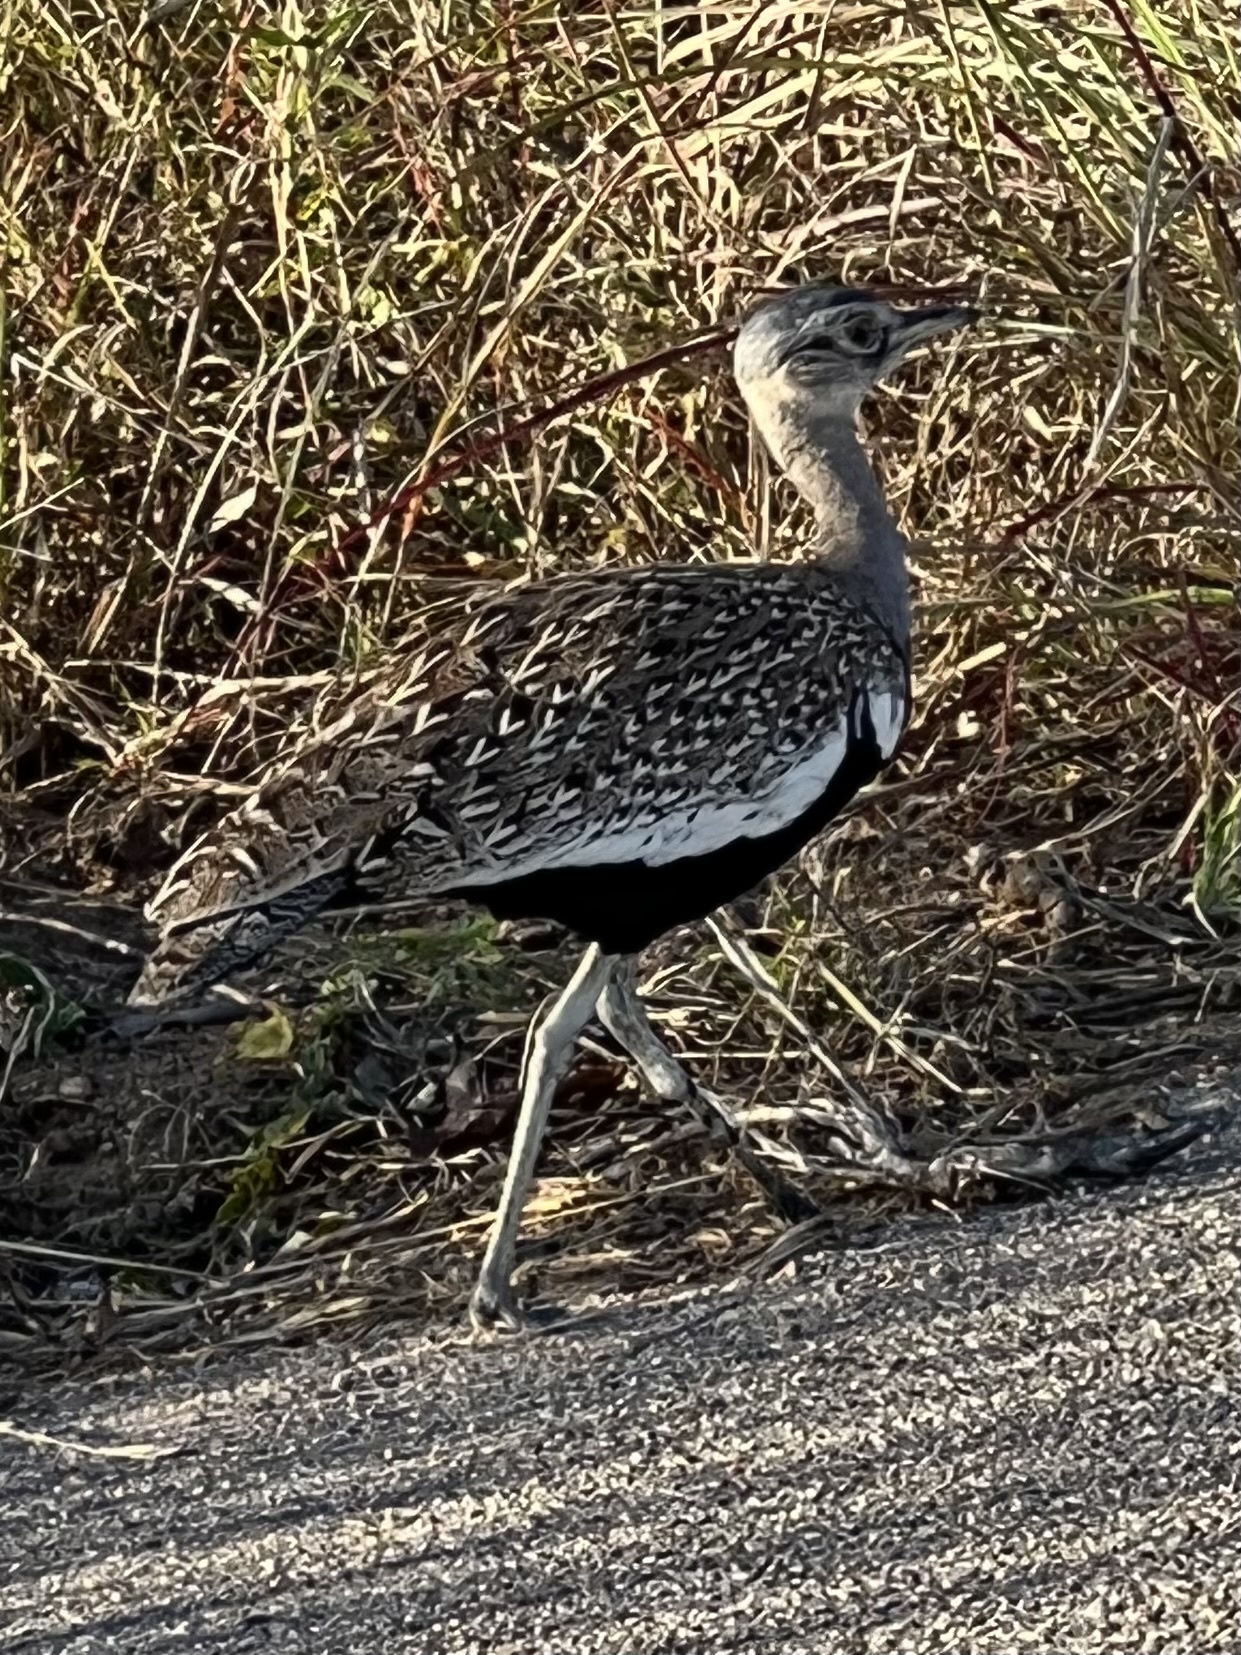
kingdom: Animalia
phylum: Chordata
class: Aves
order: Otidiformes
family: Otididae
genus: Lophotis
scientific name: Lophotis ruficrista
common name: Red-crested korhaan
